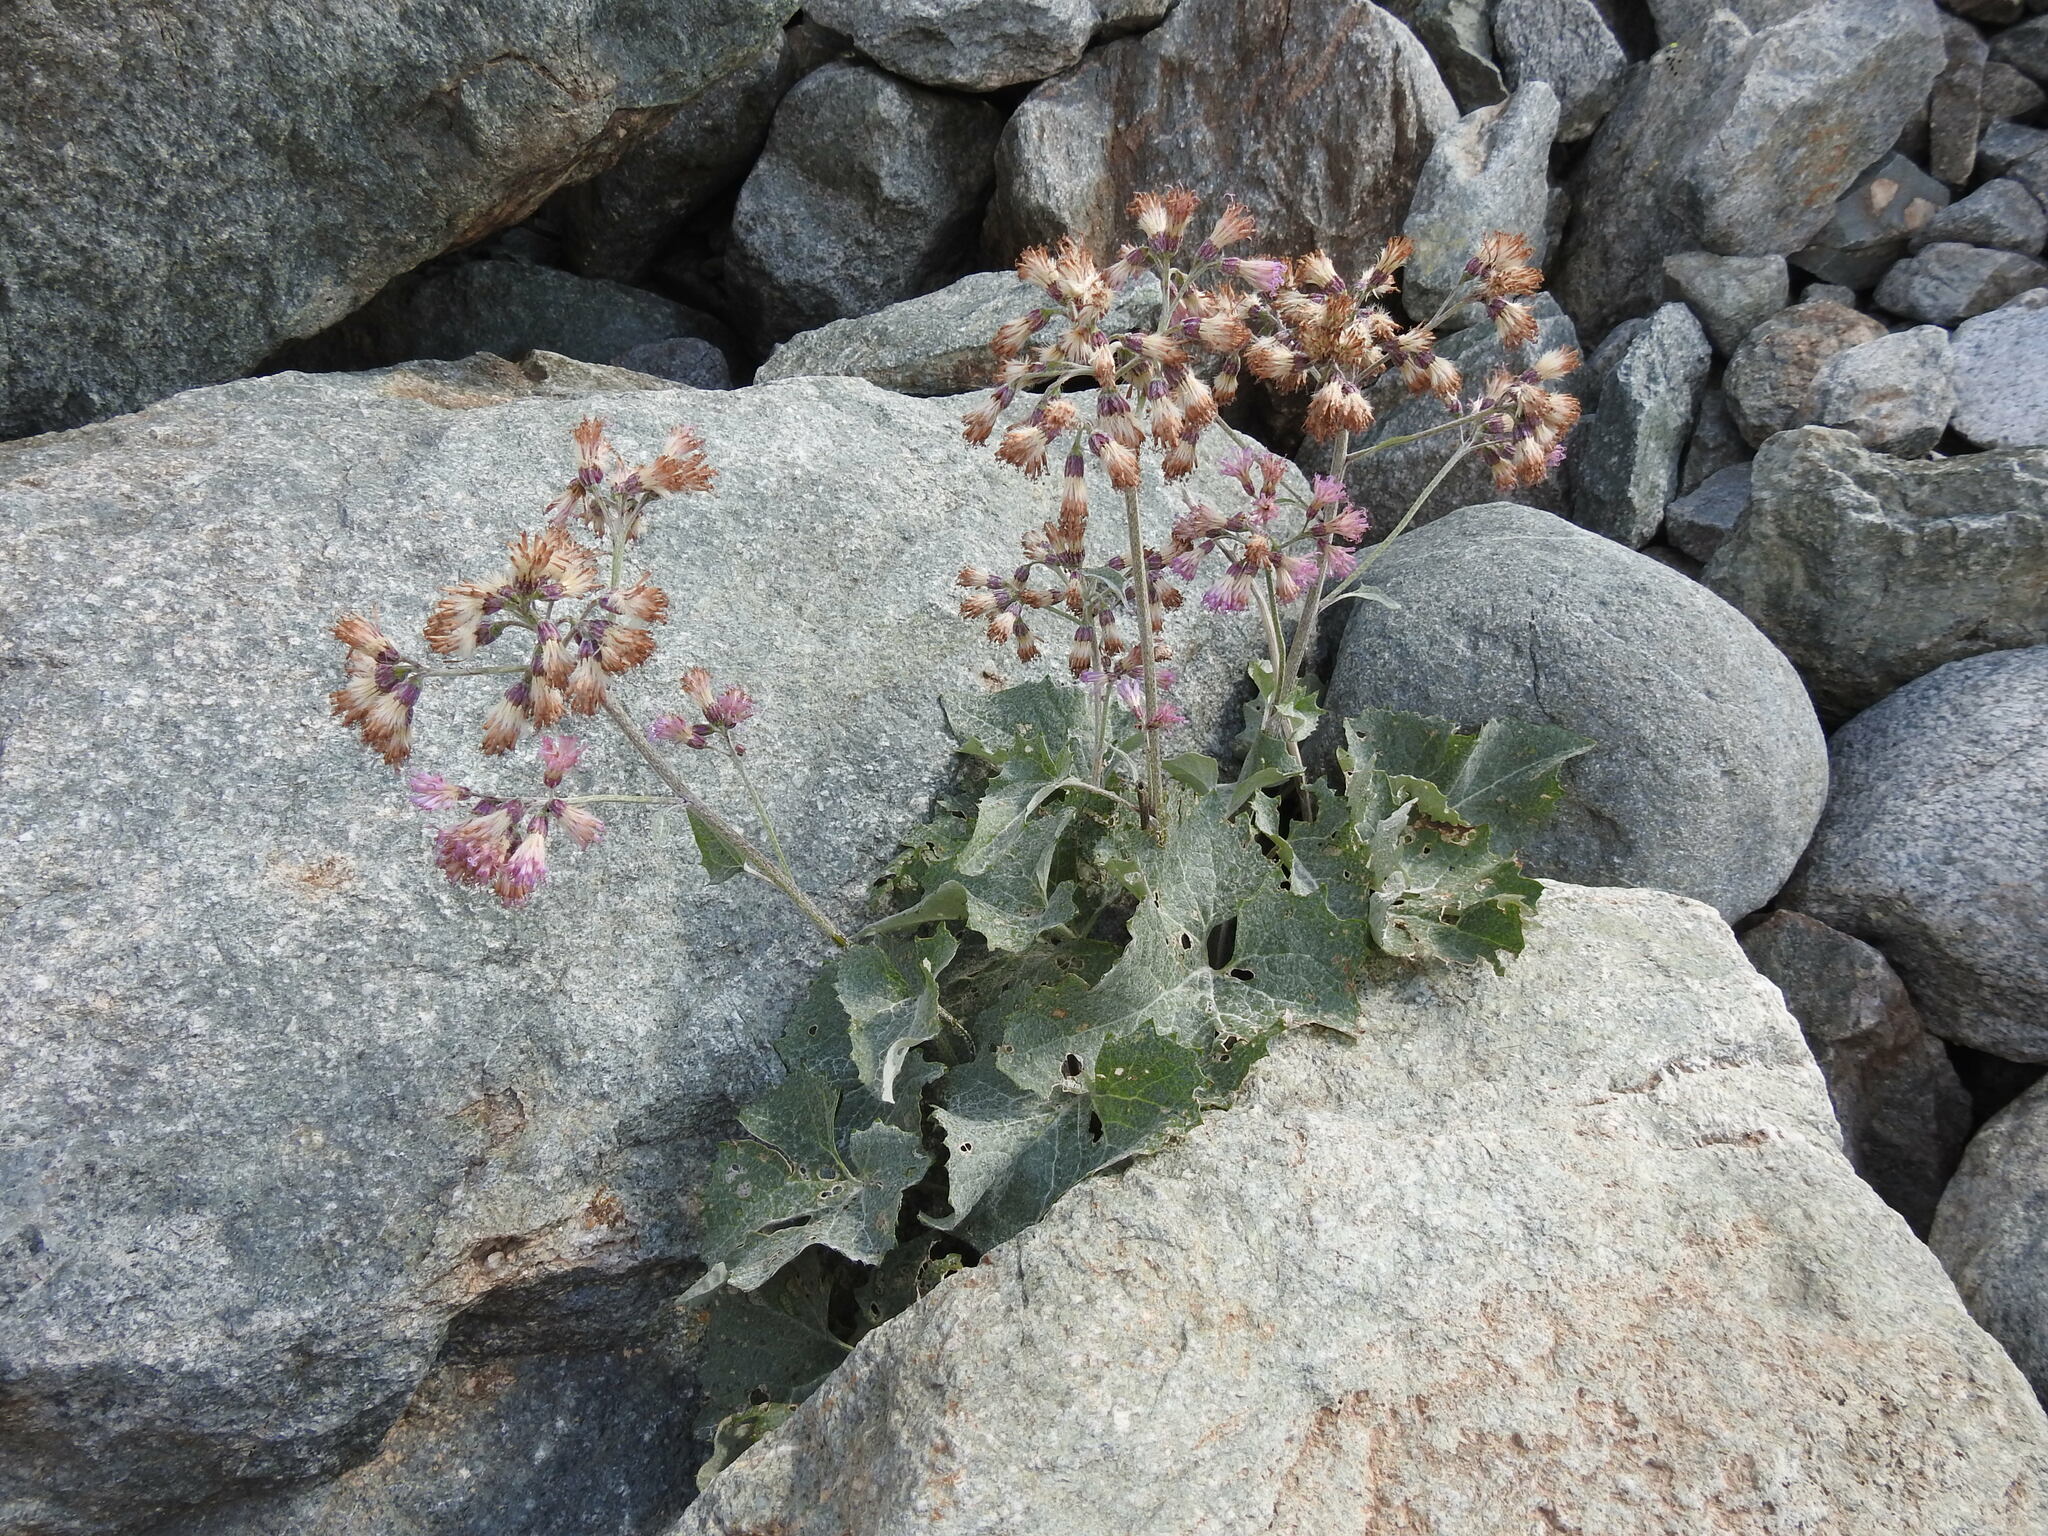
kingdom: Plantae
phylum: Tracheophyta
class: Magnoliopsida
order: Asterales
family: Asteraceae
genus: Adenostyles
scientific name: Adenostyles leucophylla
